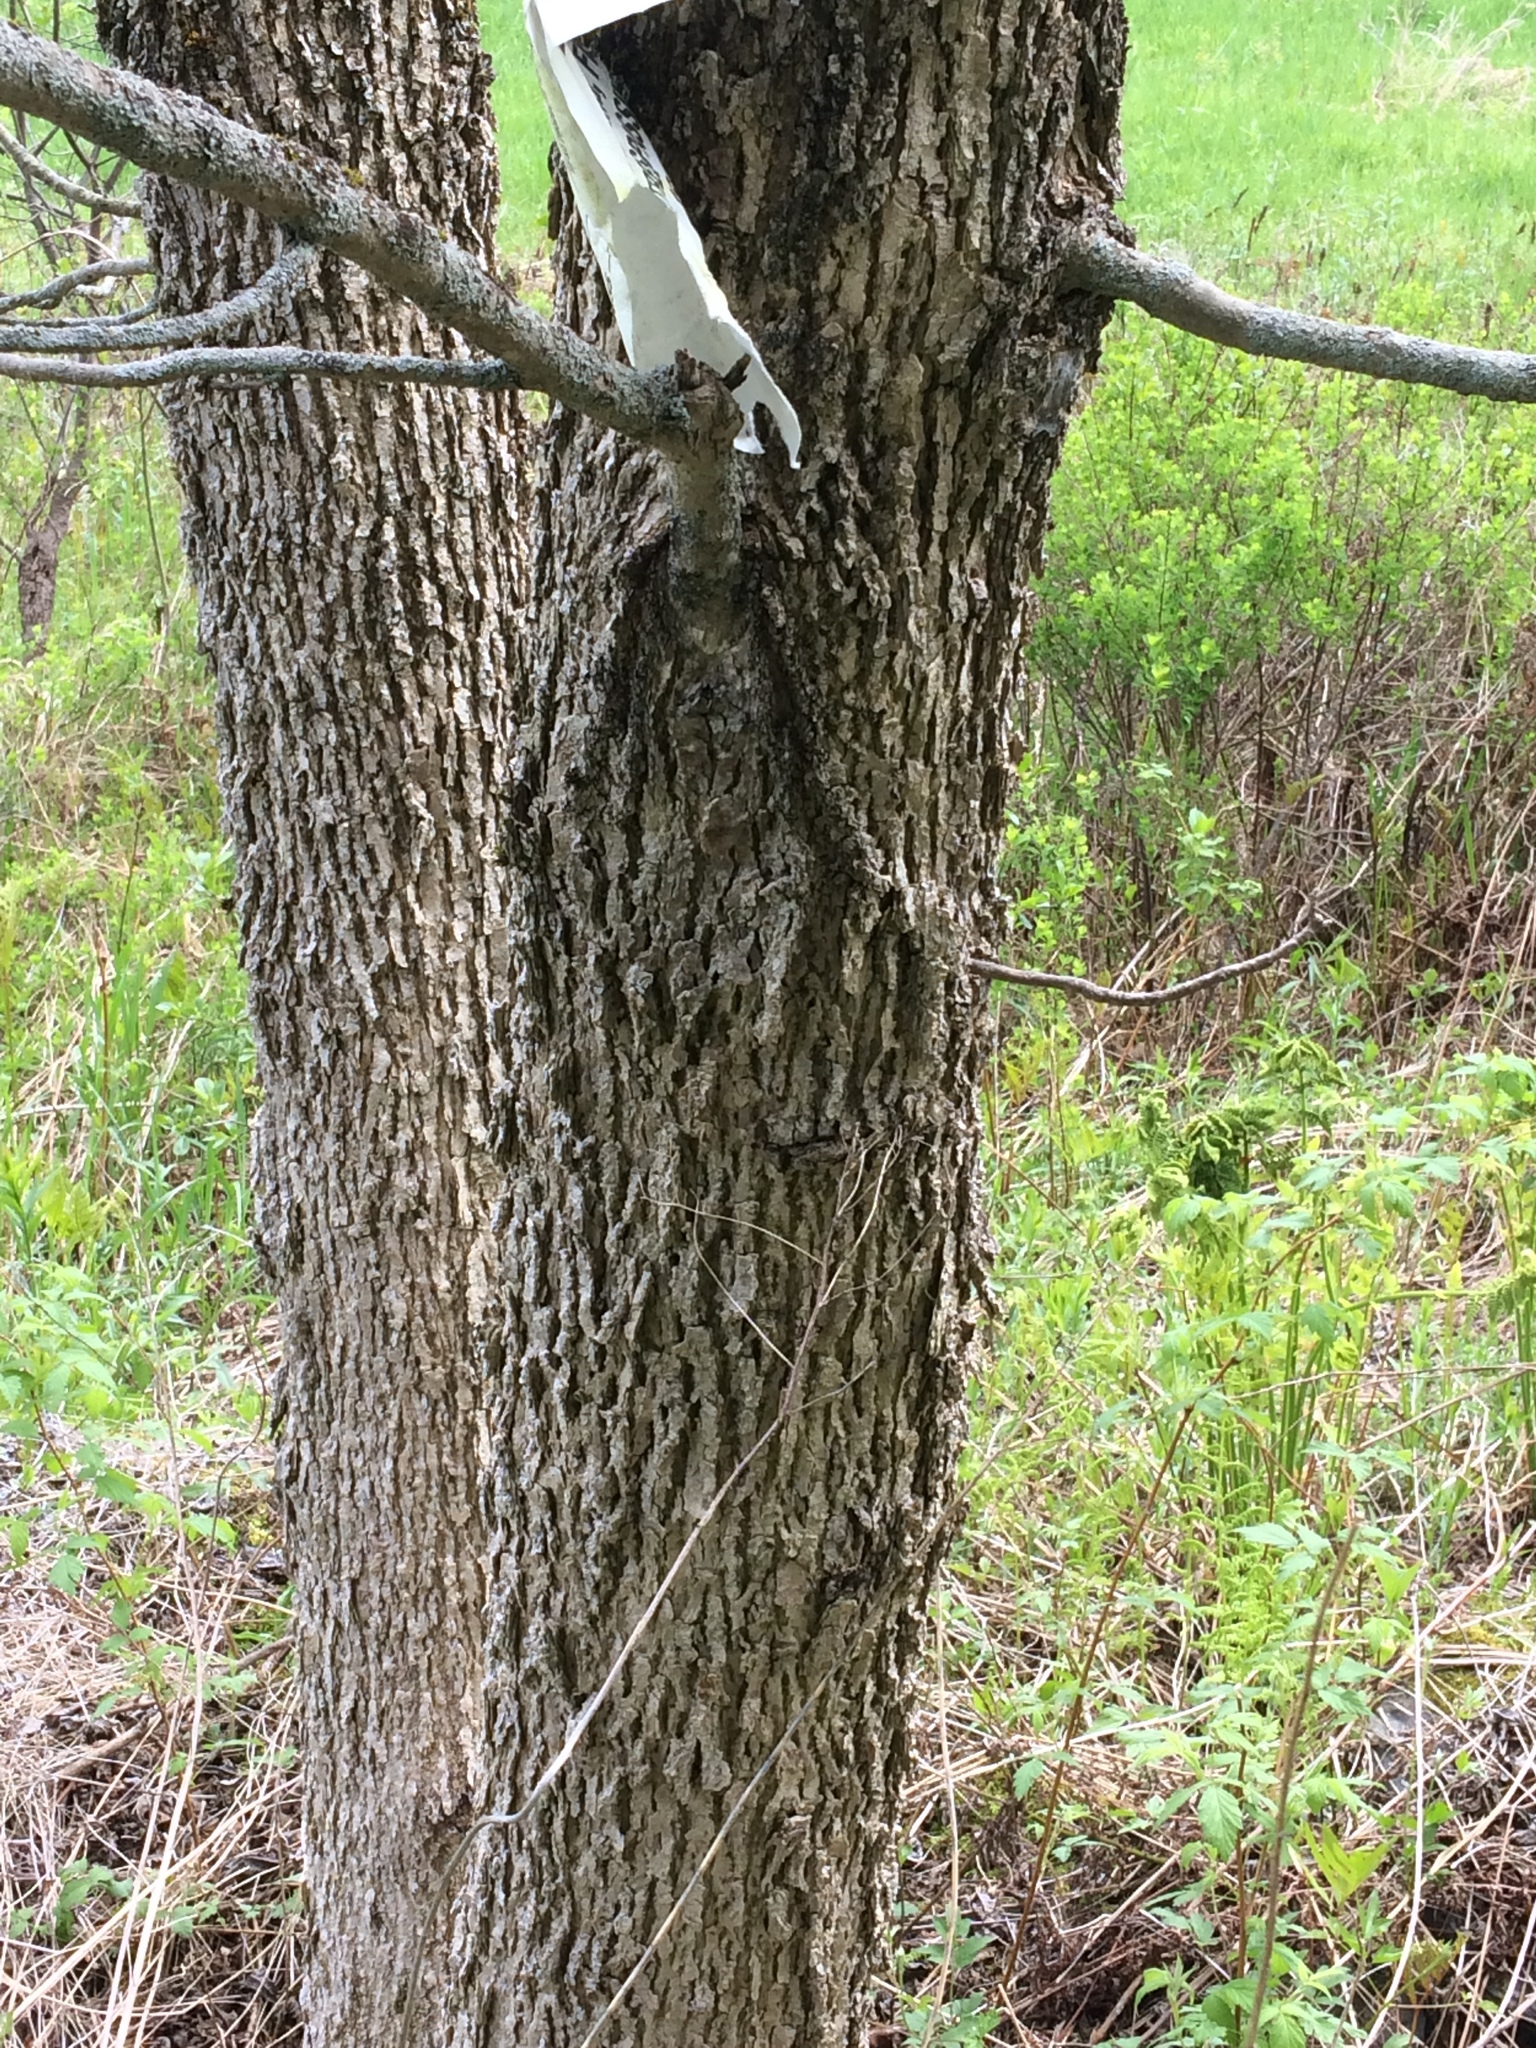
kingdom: Plantae
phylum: Tracheophyta
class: Magnoliopsida
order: Lamiales
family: Oleaceae
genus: Fraxinus
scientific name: Fraxinus nigra
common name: Black ash
